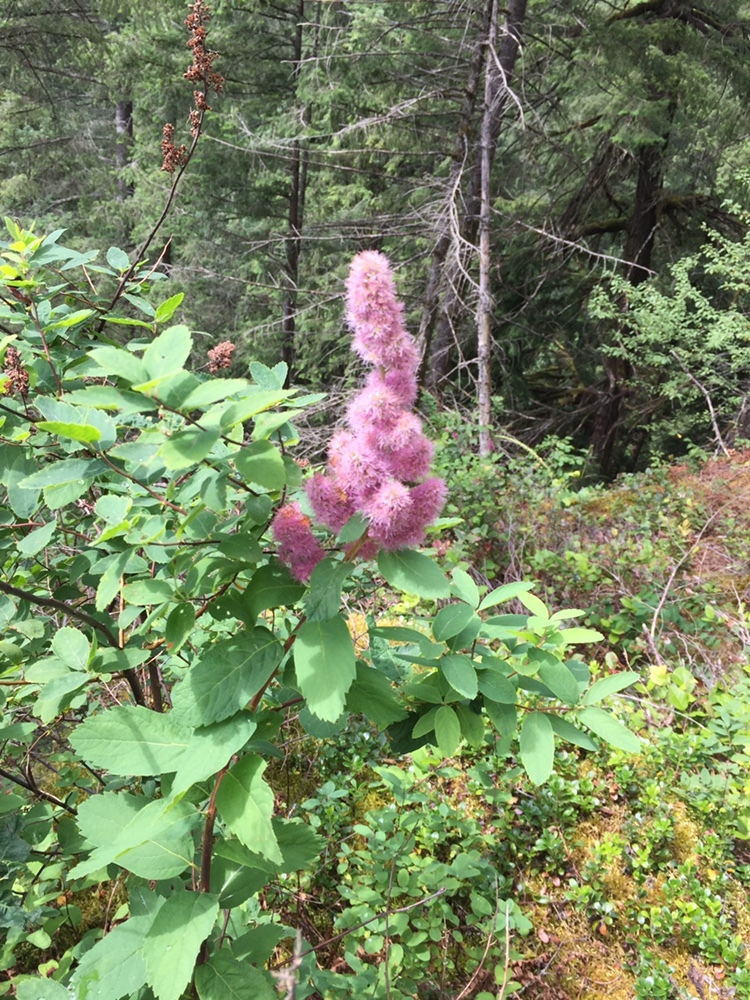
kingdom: Plantae
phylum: Tracheophyta
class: Magnoliopsida
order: Rosales
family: Rosaceae
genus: Spiraea
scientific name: Spiraea douglasii
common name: Steeplebush
